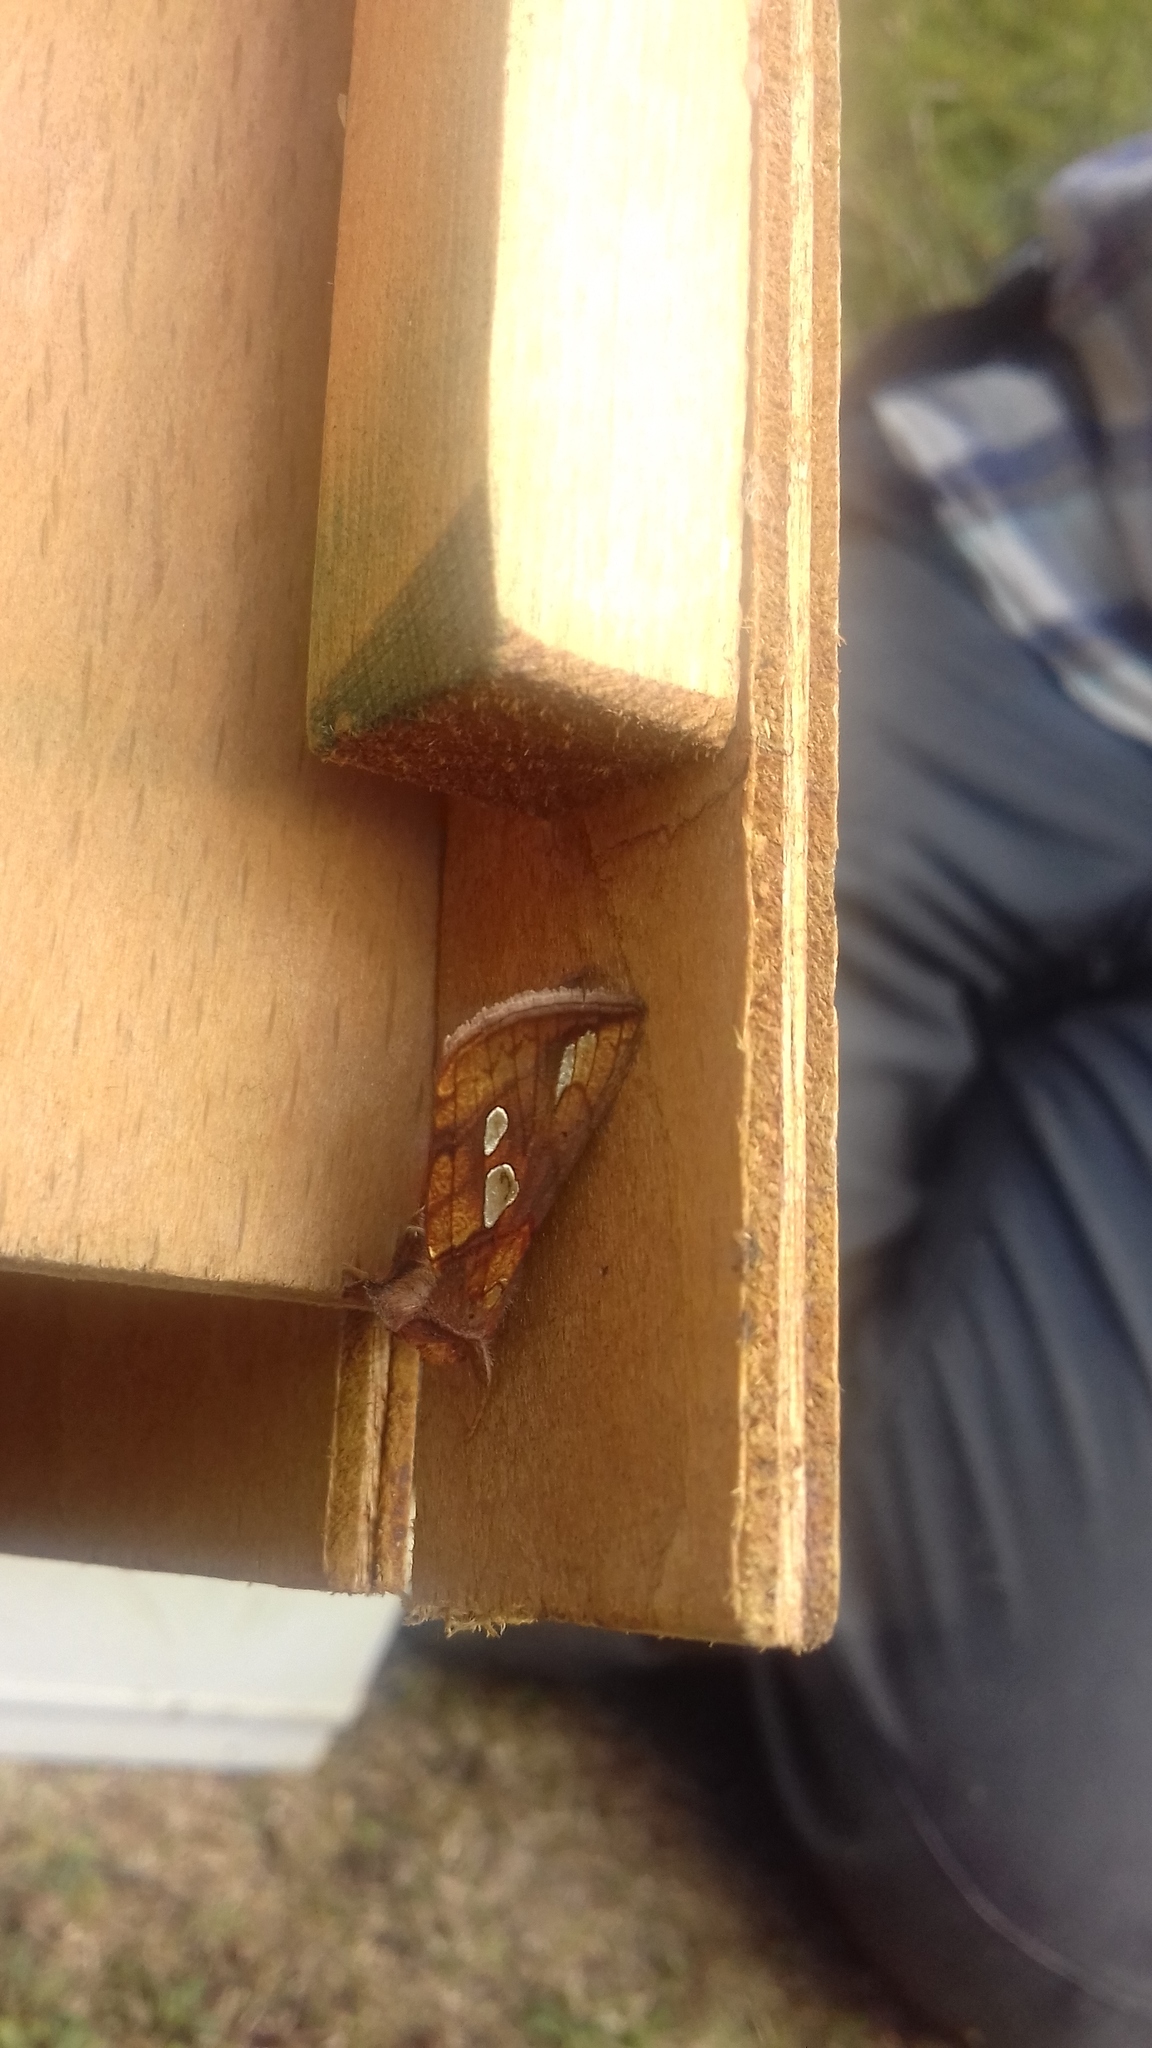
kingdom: Animalia
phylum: Arthropoda
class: Insecta
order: Lepidoptera
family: Noctuidae
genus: Plusia
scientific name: Plusia festucae
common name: Gold spot
